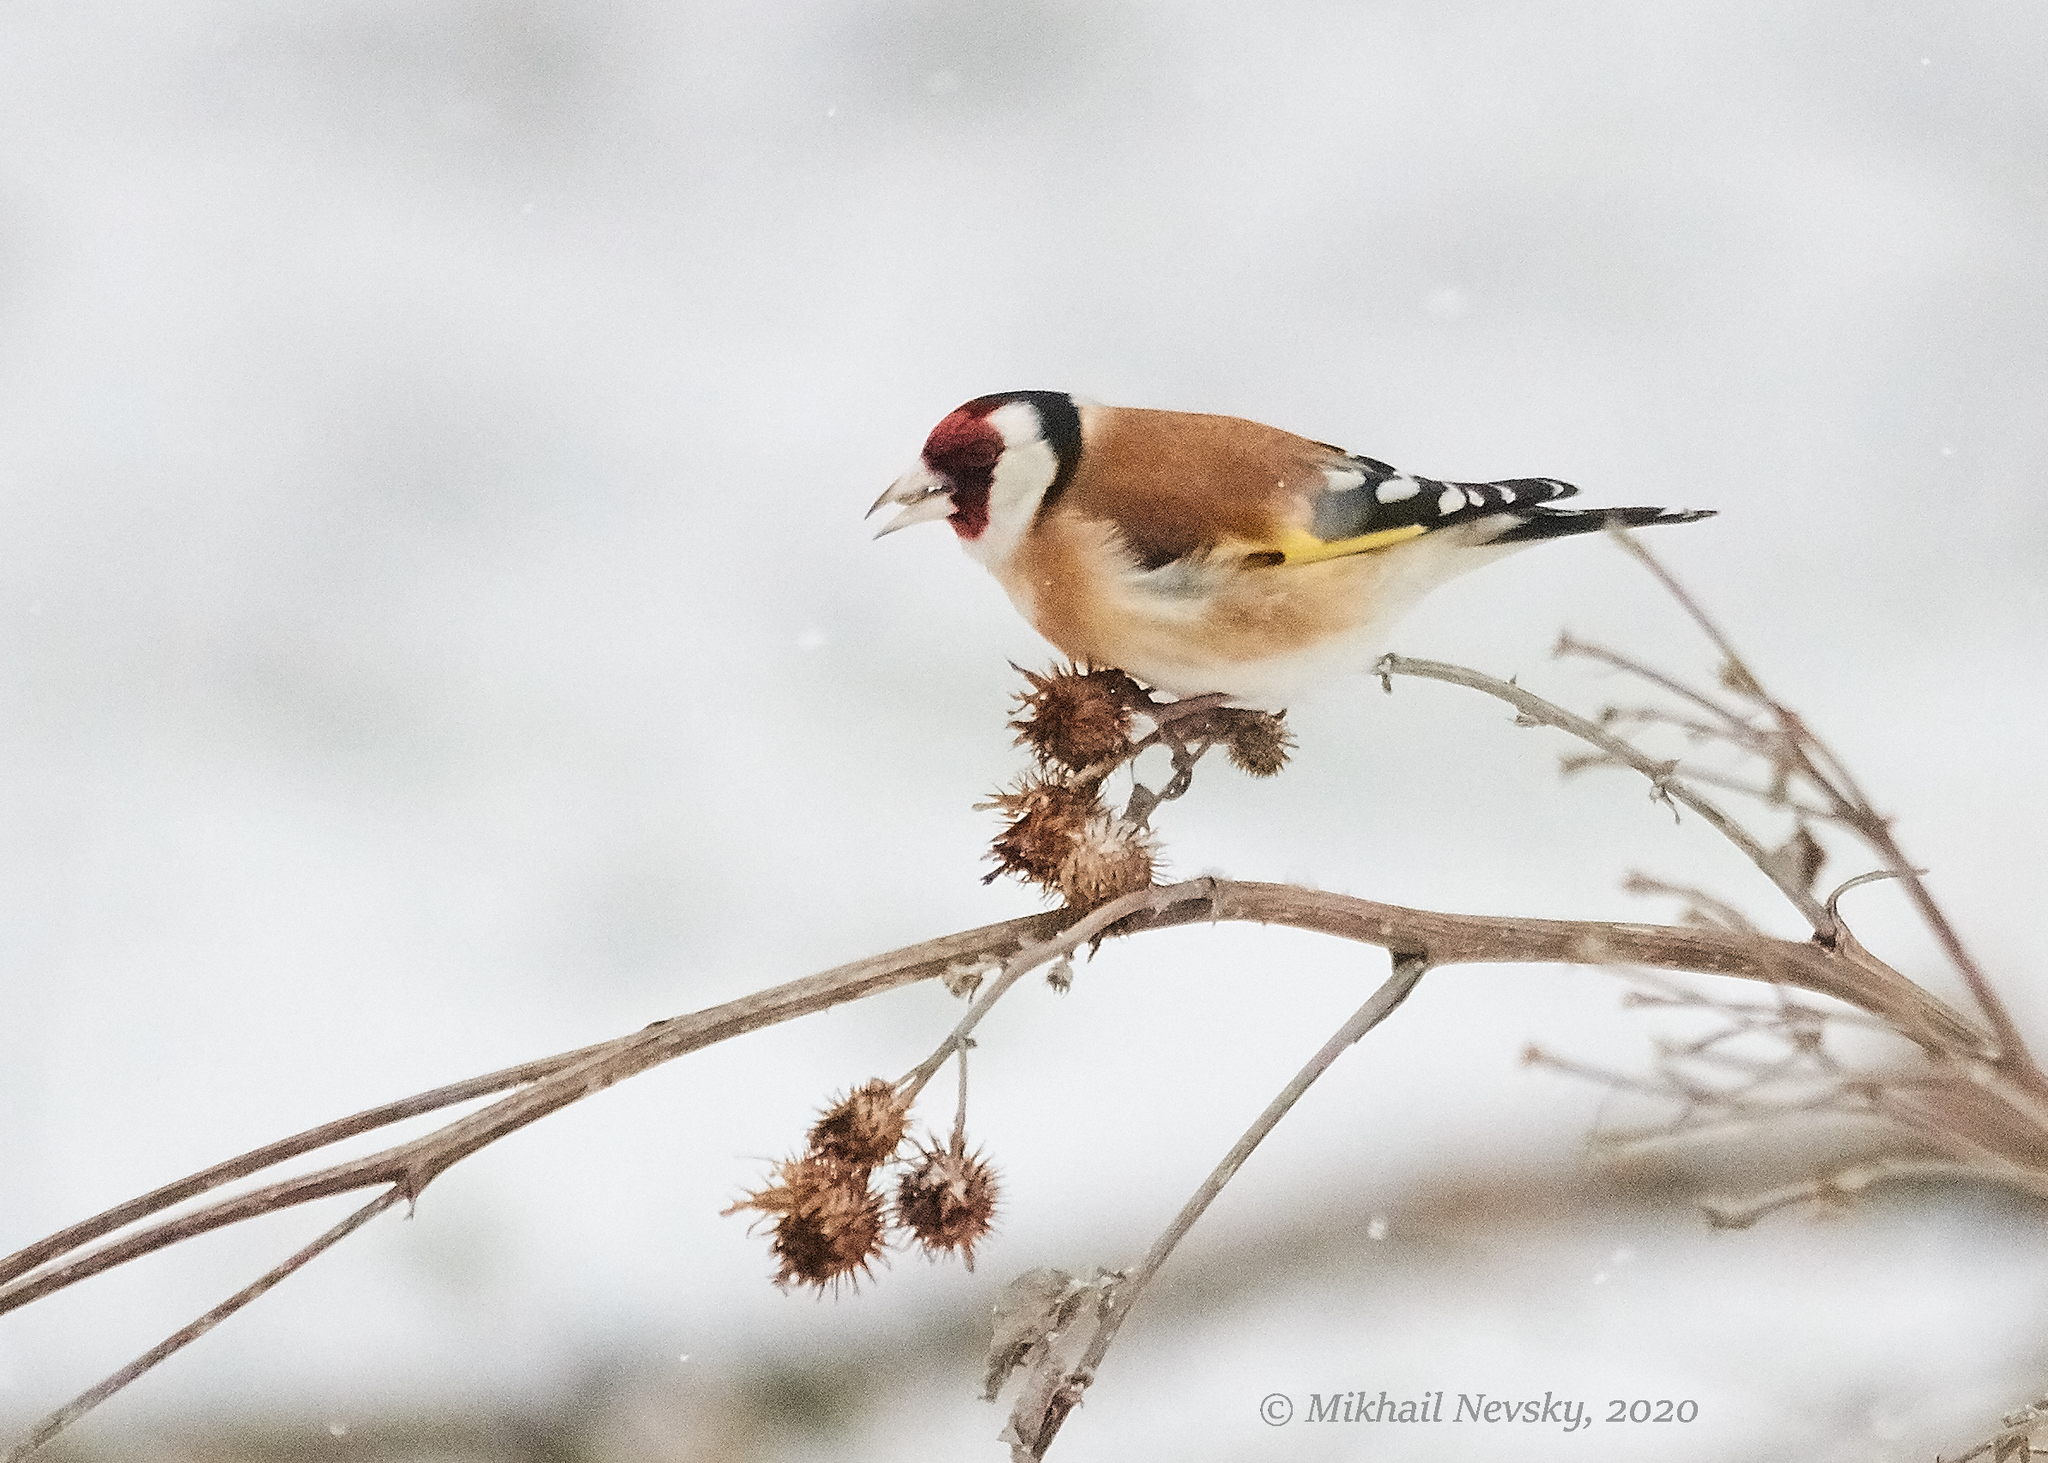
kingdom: Animalia
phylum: Chordata
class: Aves
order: Passeriformes
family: Fringillidae
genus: Carduelis
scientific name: Carduelis carduelis
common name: European goldfinch
